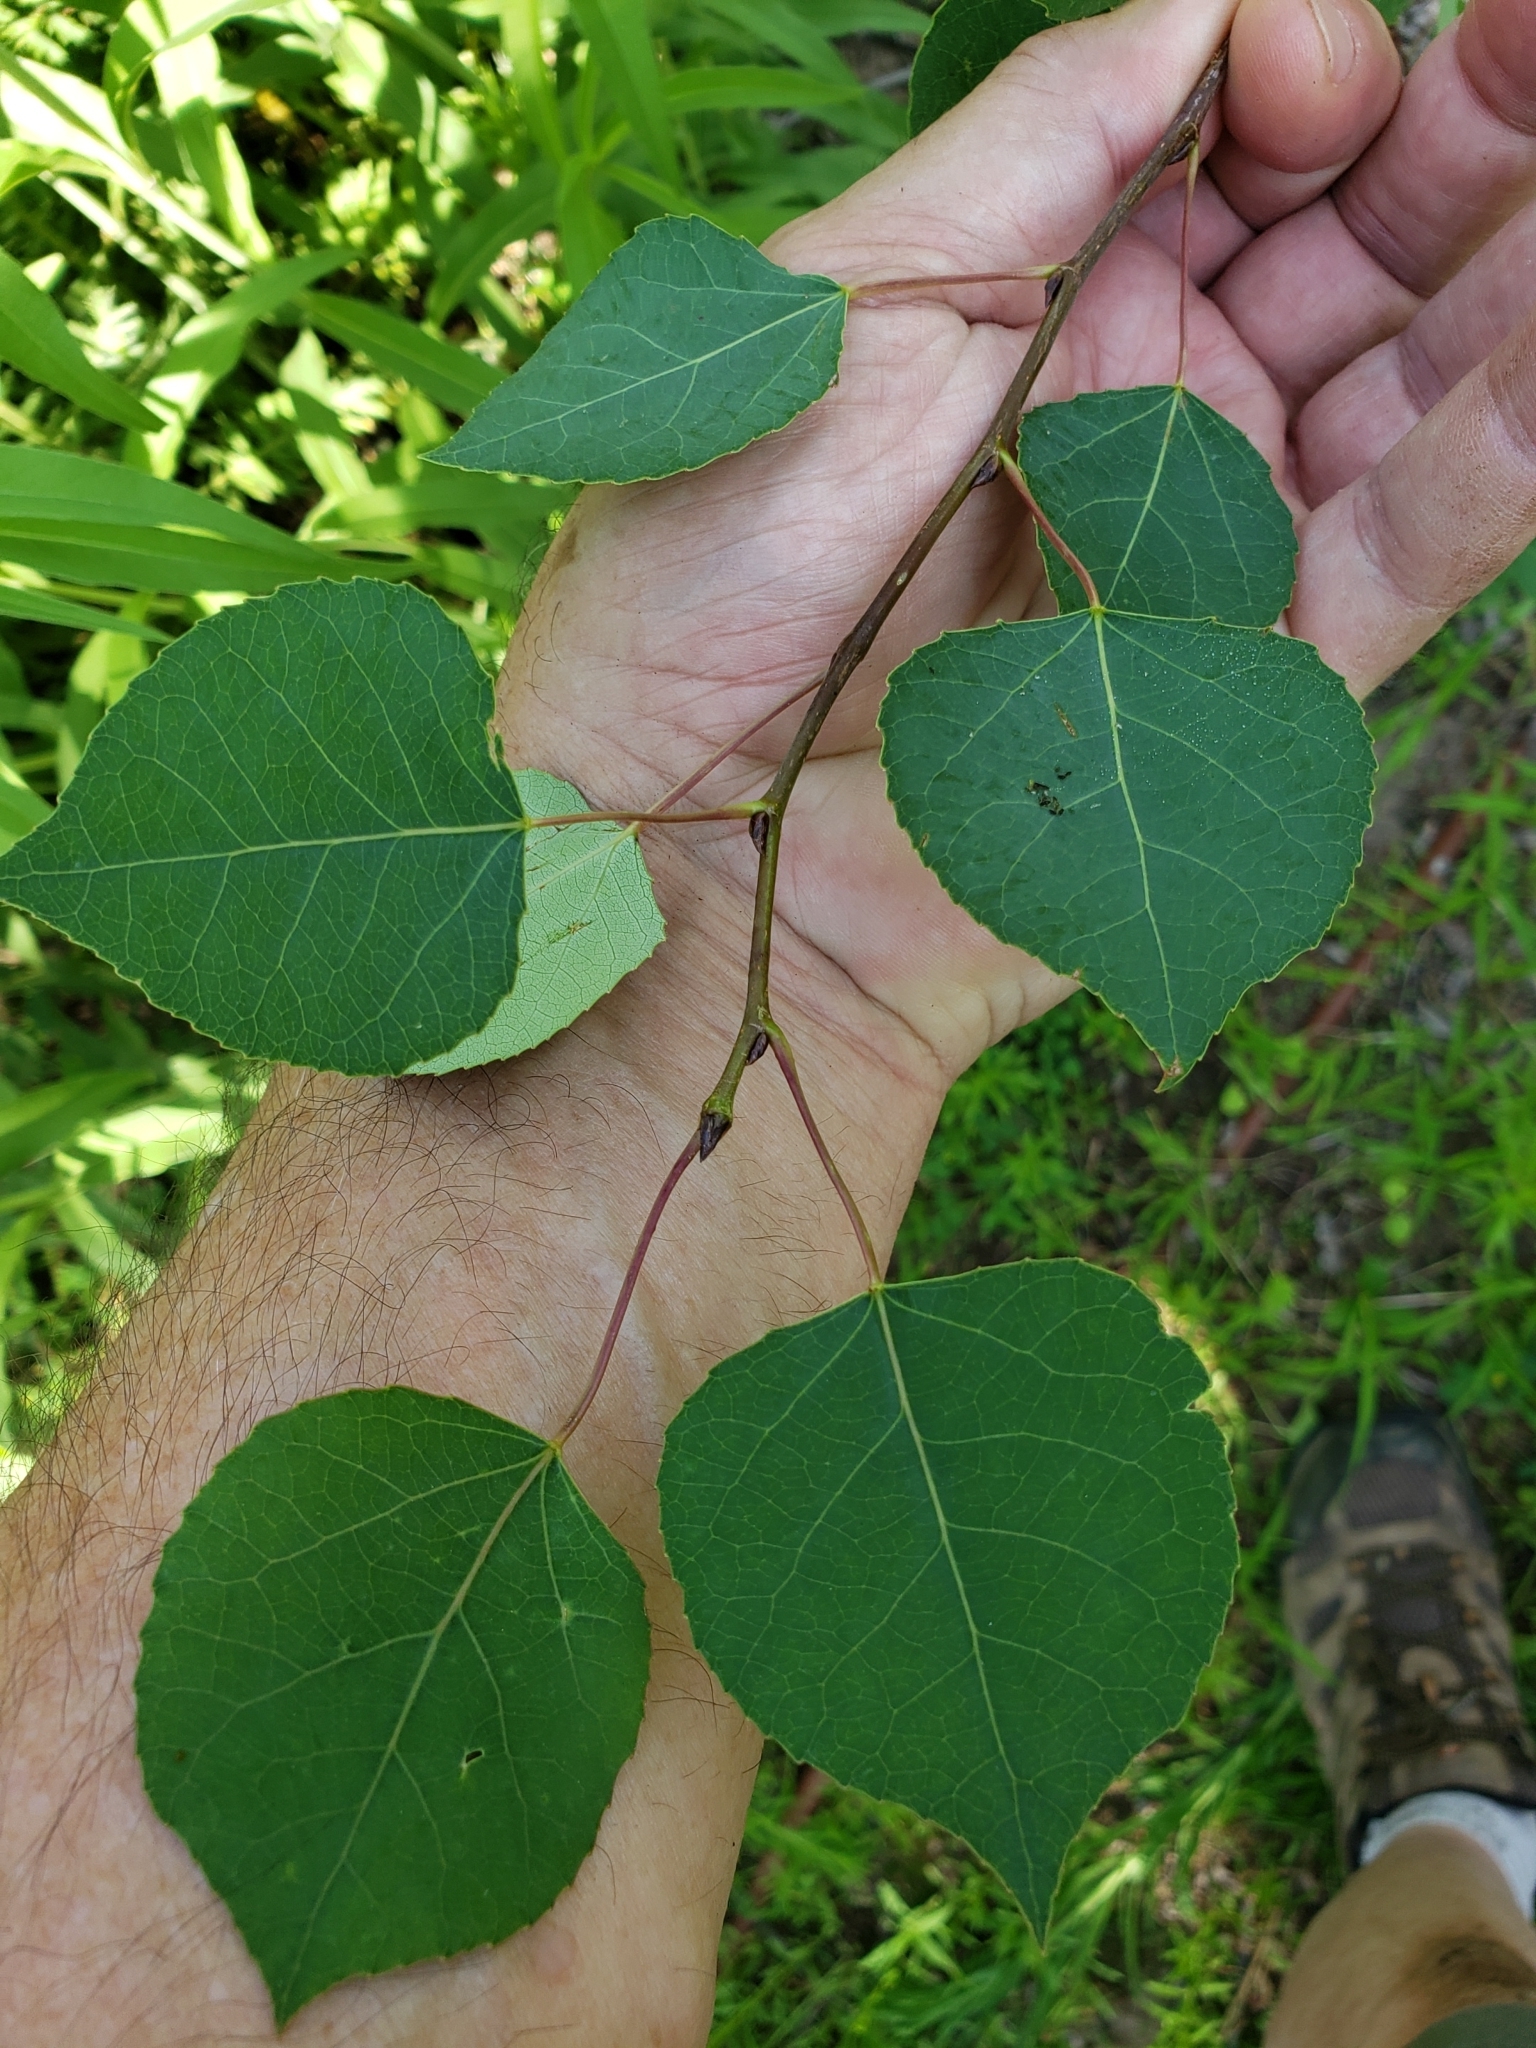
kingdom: Animalia
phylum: Arthropoda
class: Insecta
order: Diptera
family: Agromyzidae
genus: Euhexomyza
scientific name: Euhexomyza schineri
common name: Poplar twiggall fly
